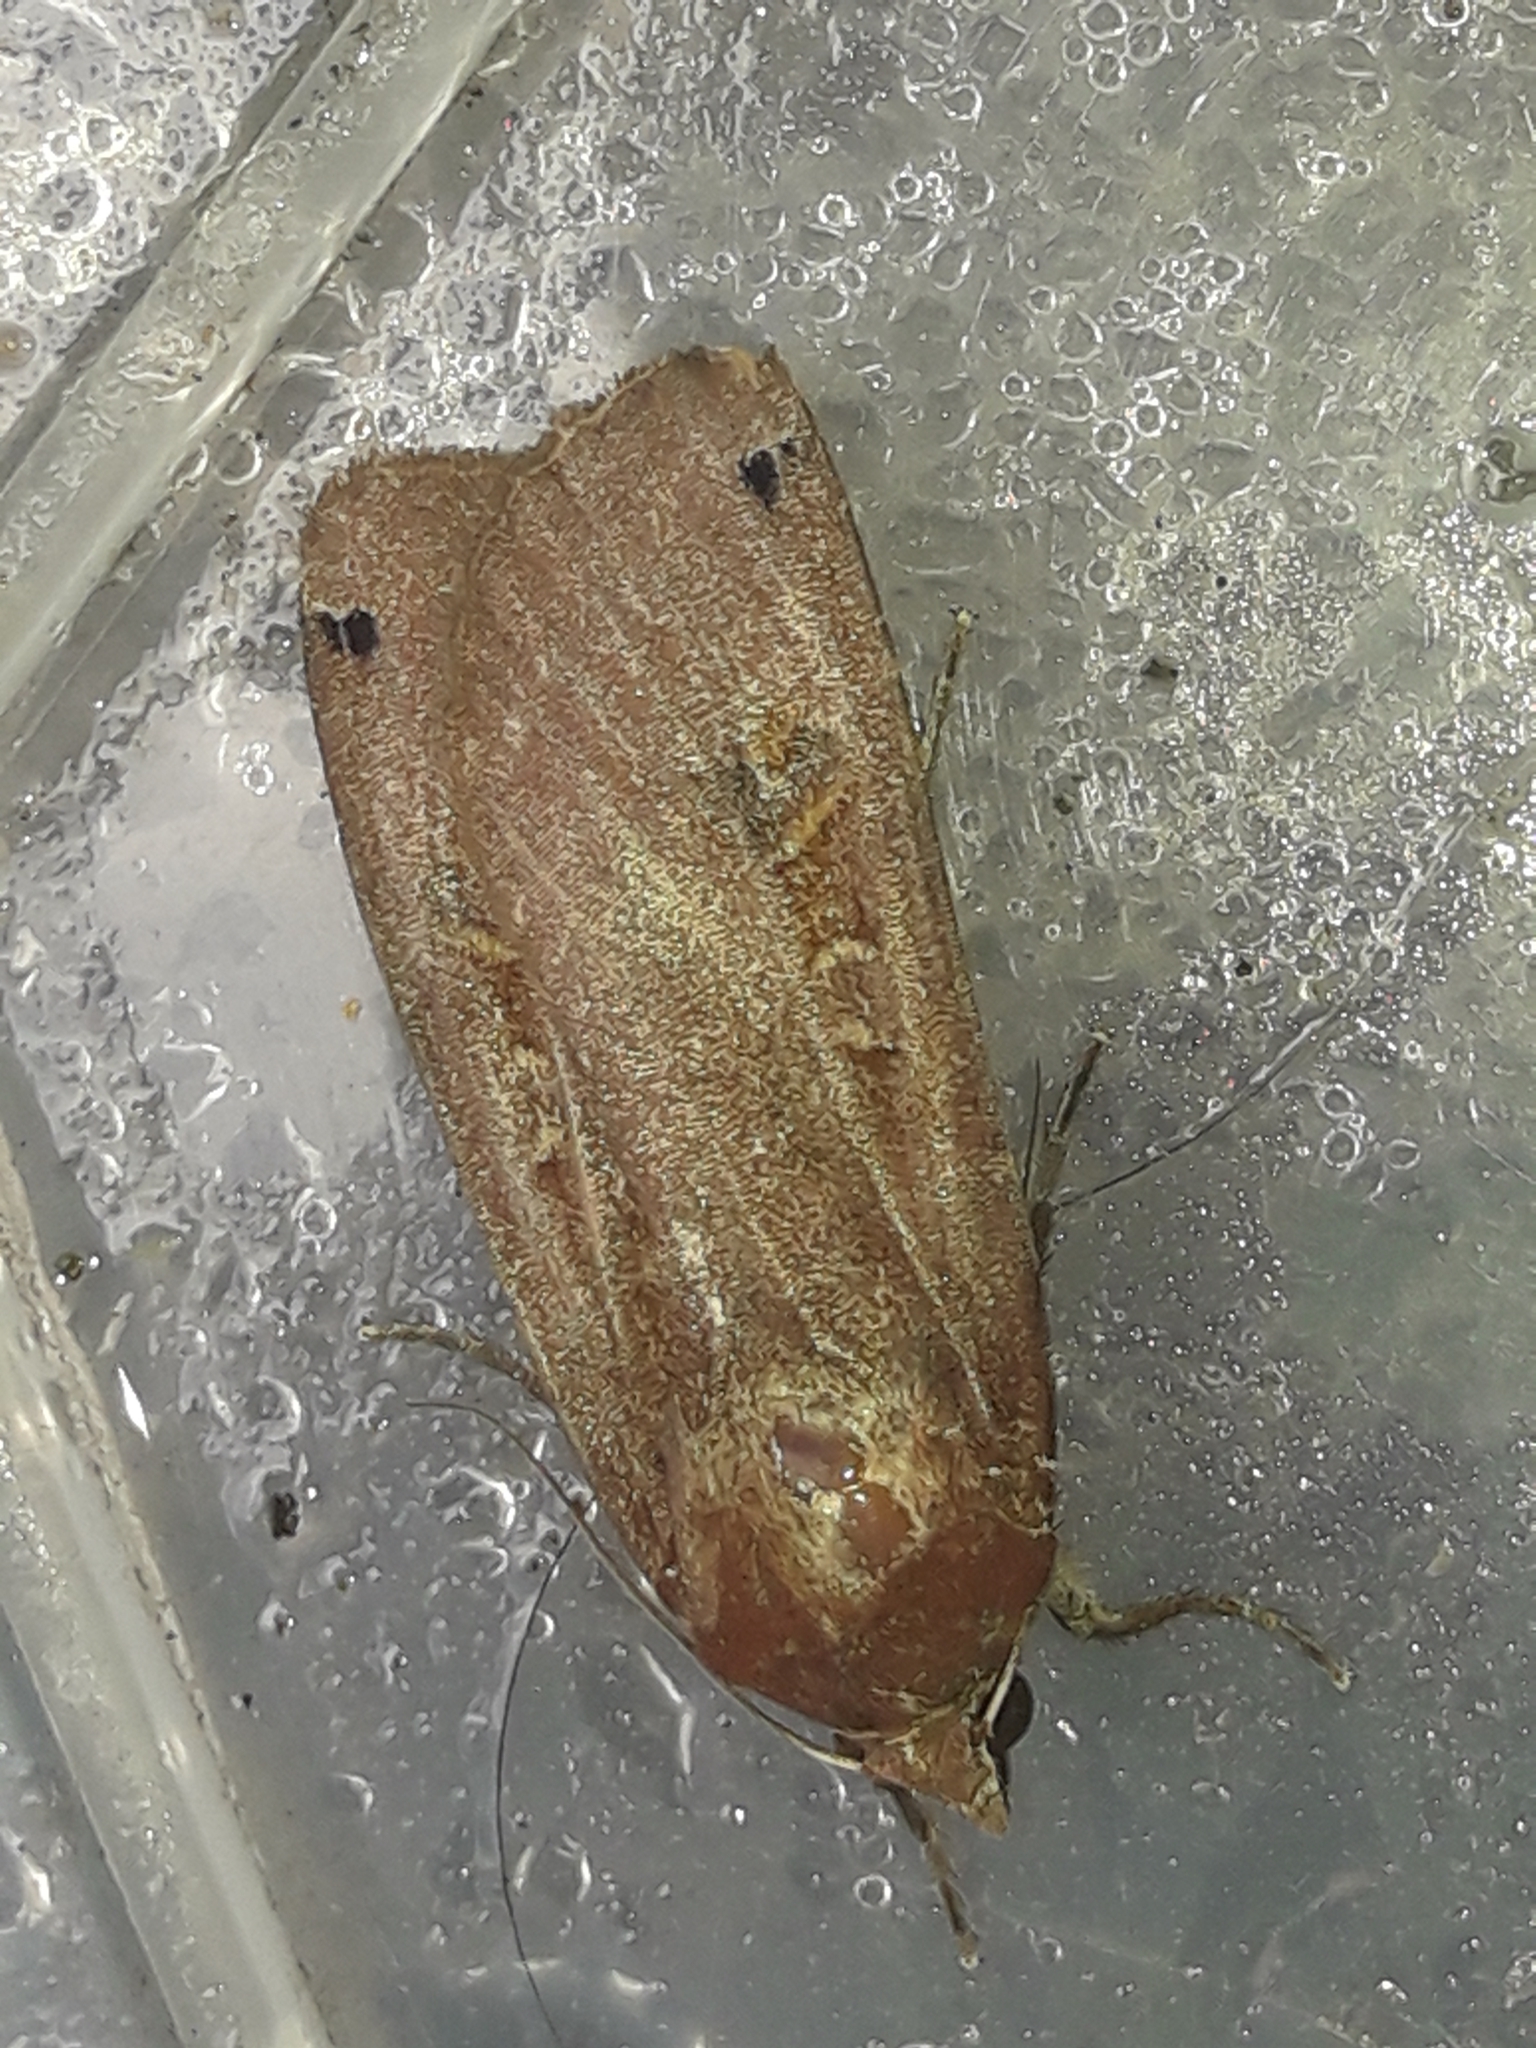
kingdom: Animalia
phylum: Arthropoda
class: Insecta
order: Lepidoptera
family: Noctuidae
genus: Noctua
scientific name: Noctua pronuba
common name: Large yellow underwing
